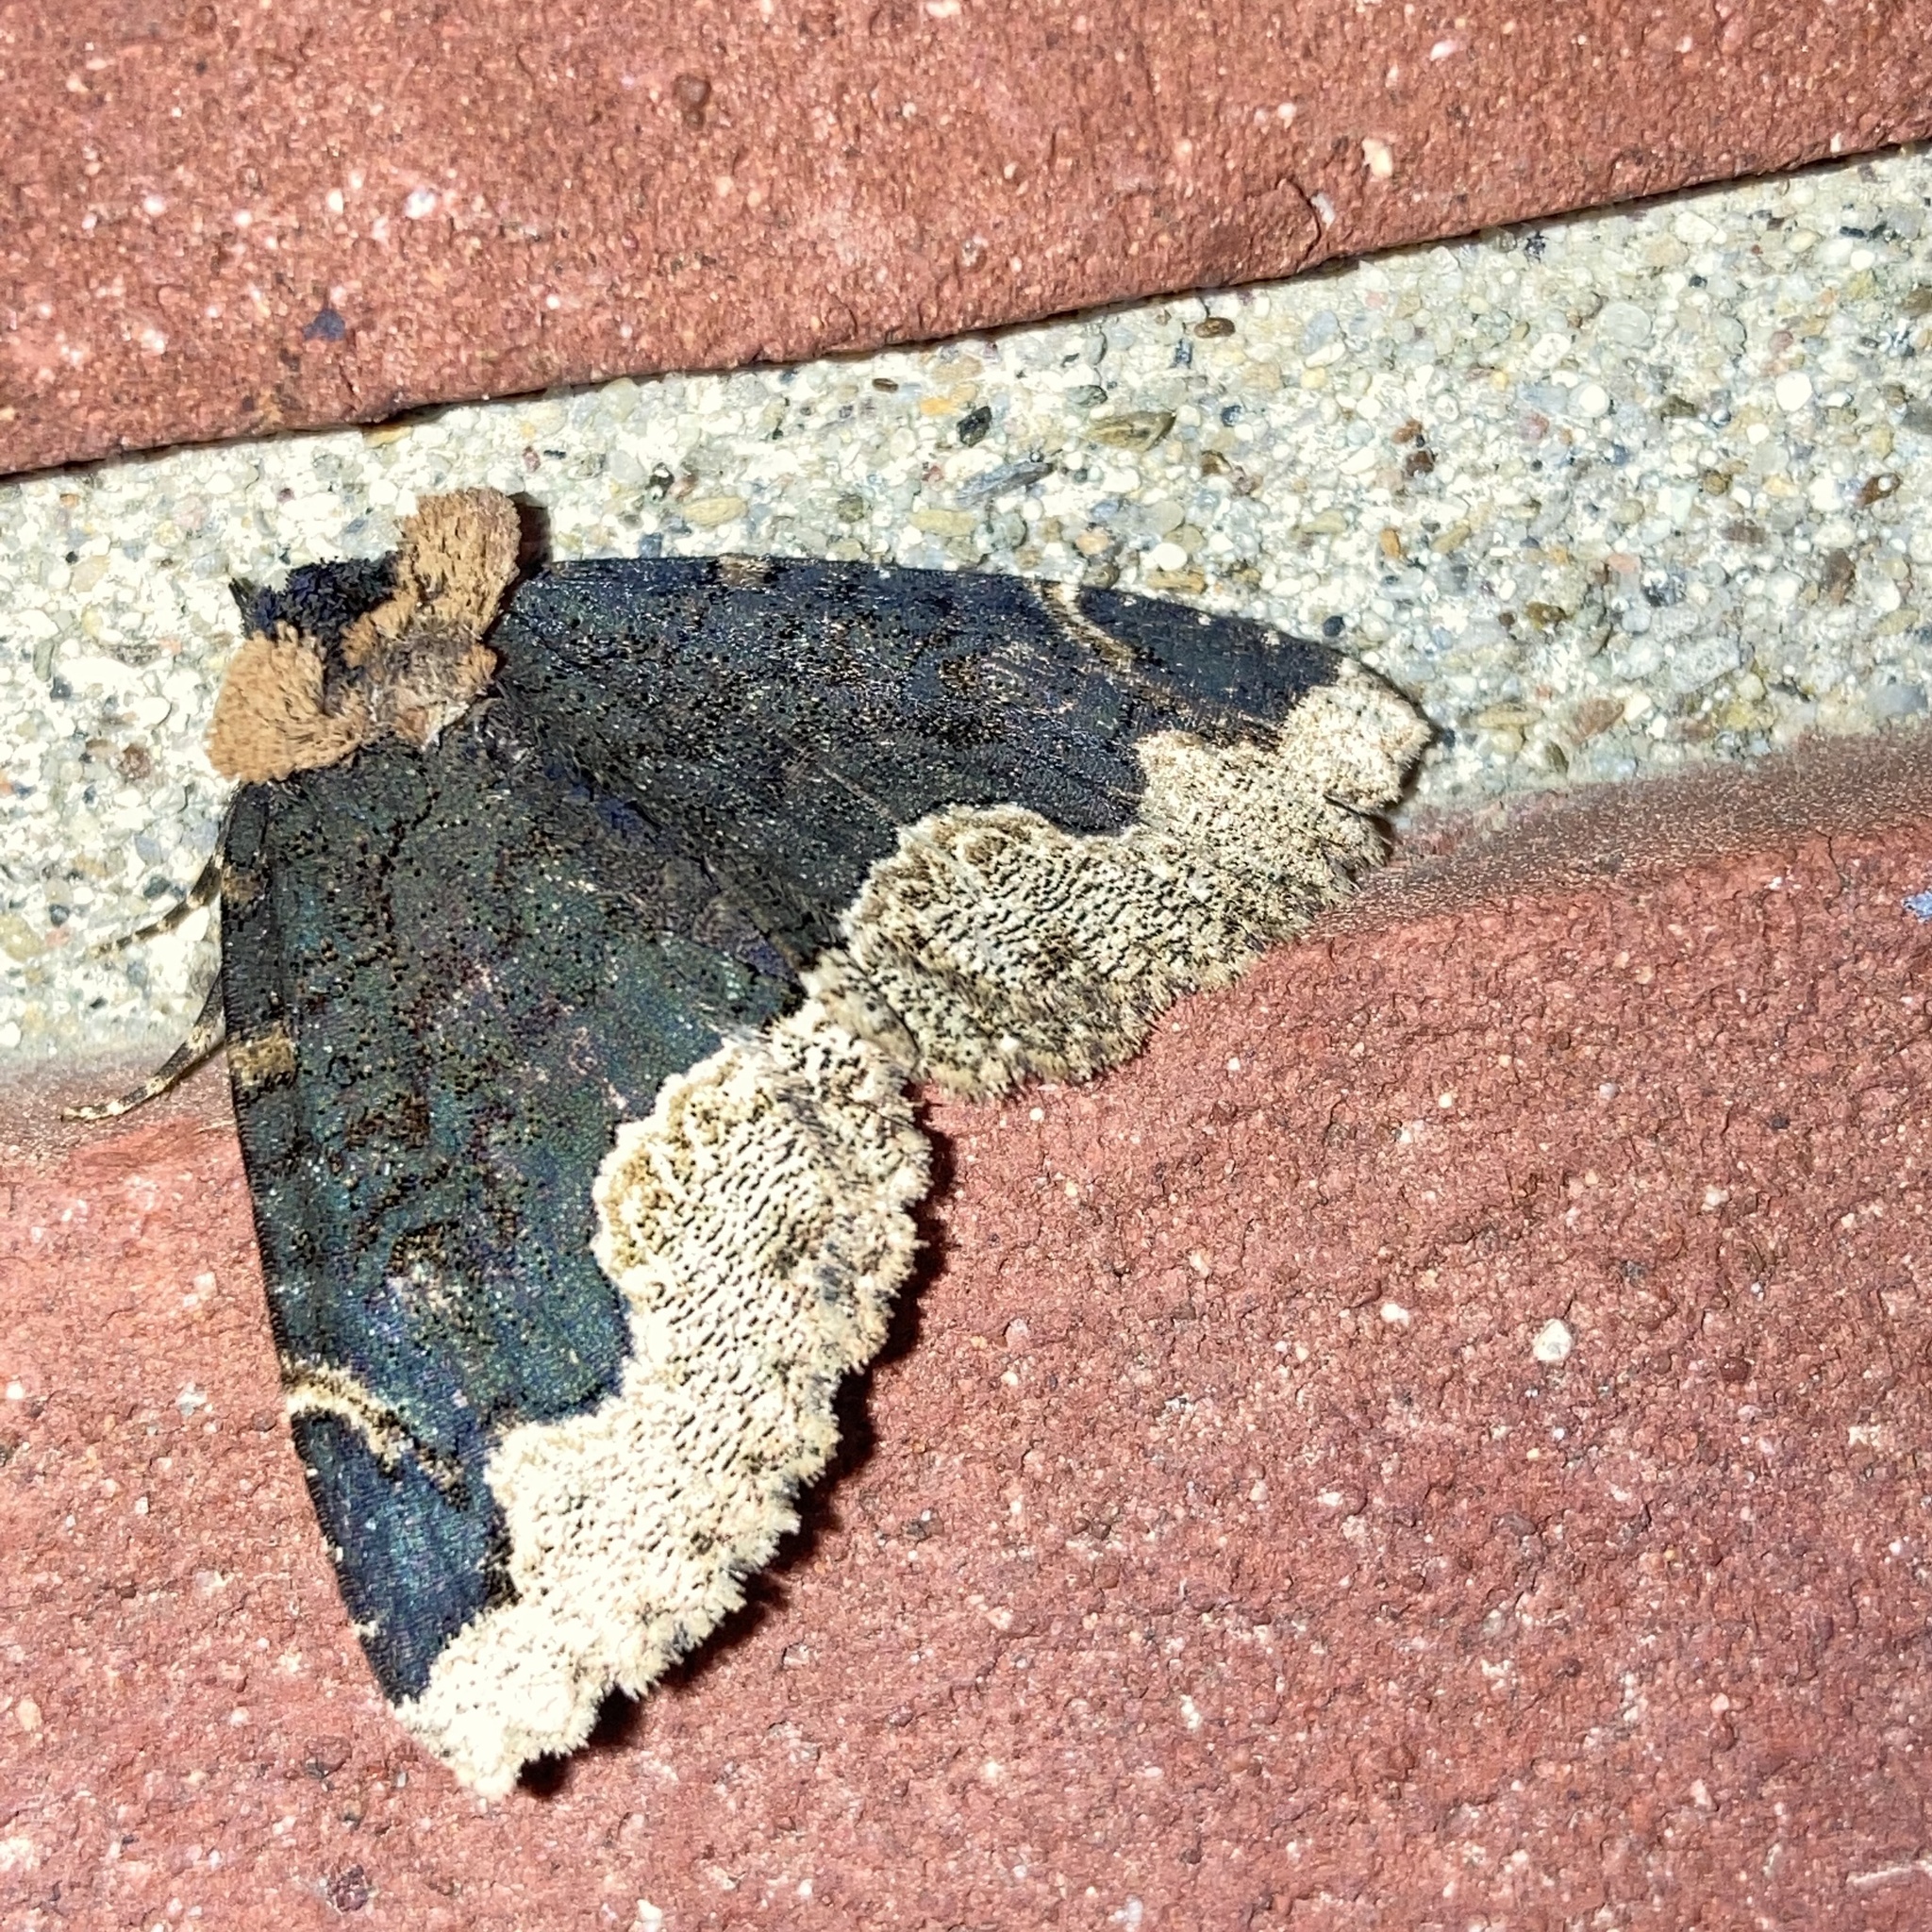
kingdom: Animalia
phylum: Arthropoda
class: Insecta
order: Lepidoptera
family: Erebidae
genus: Zale
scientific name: Zale horrida
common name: Horrid zale moth
